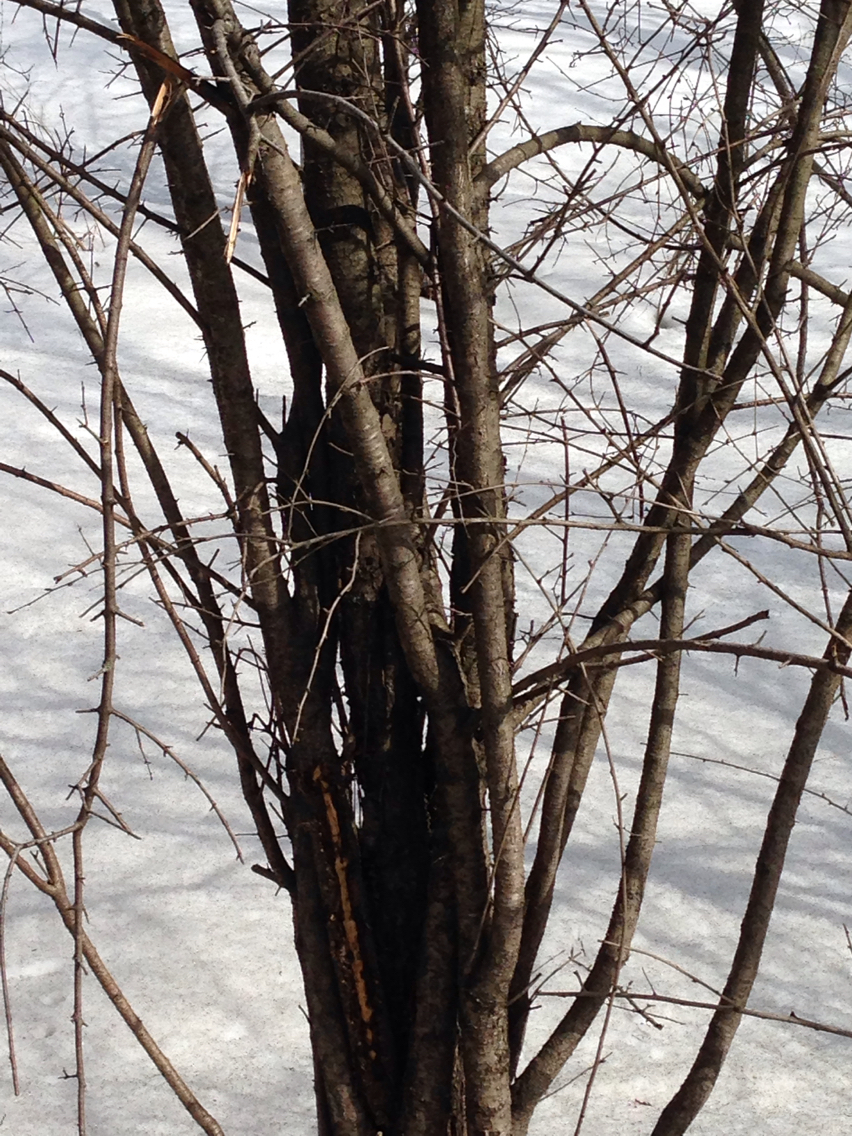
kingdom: Plantae
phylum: Tracheophyta
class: Magnoliopsida
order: Rosales
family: Rhamnaceae
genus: Rhamnus
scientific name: Rhamnus cathartica
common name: Common buckthorn
